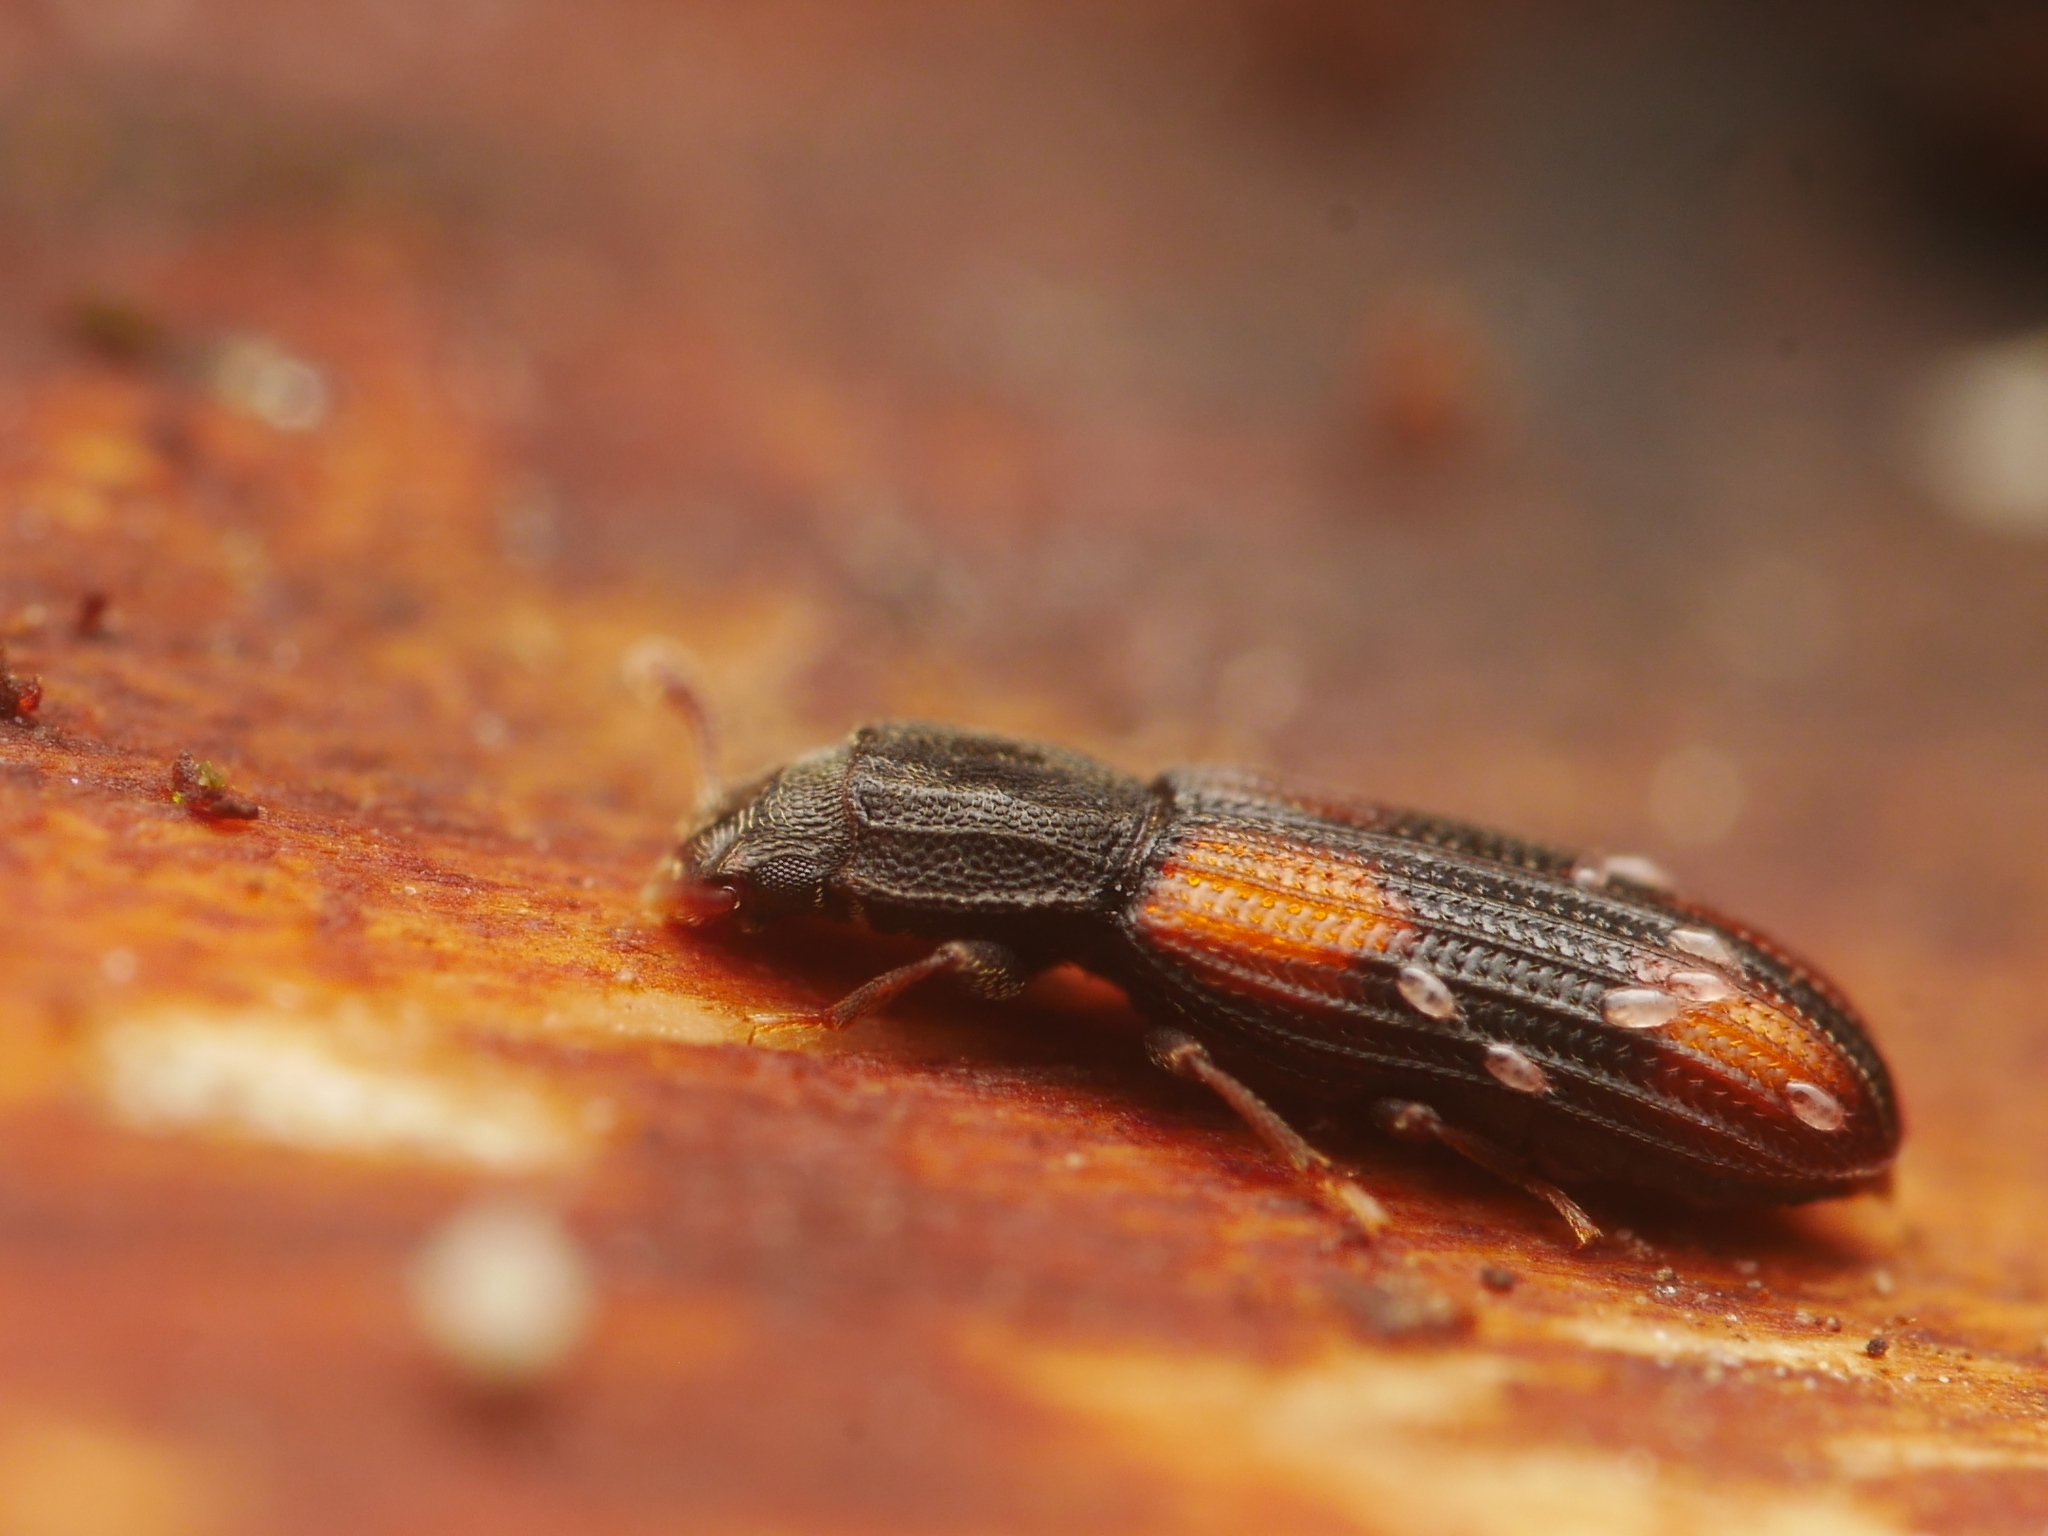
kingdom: Animalia
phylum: Arthropoda
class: Insecta
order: Coleoptera
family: Zopheridae
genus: Bitoma
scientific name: Bitoma crenata
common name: Bark beetle
